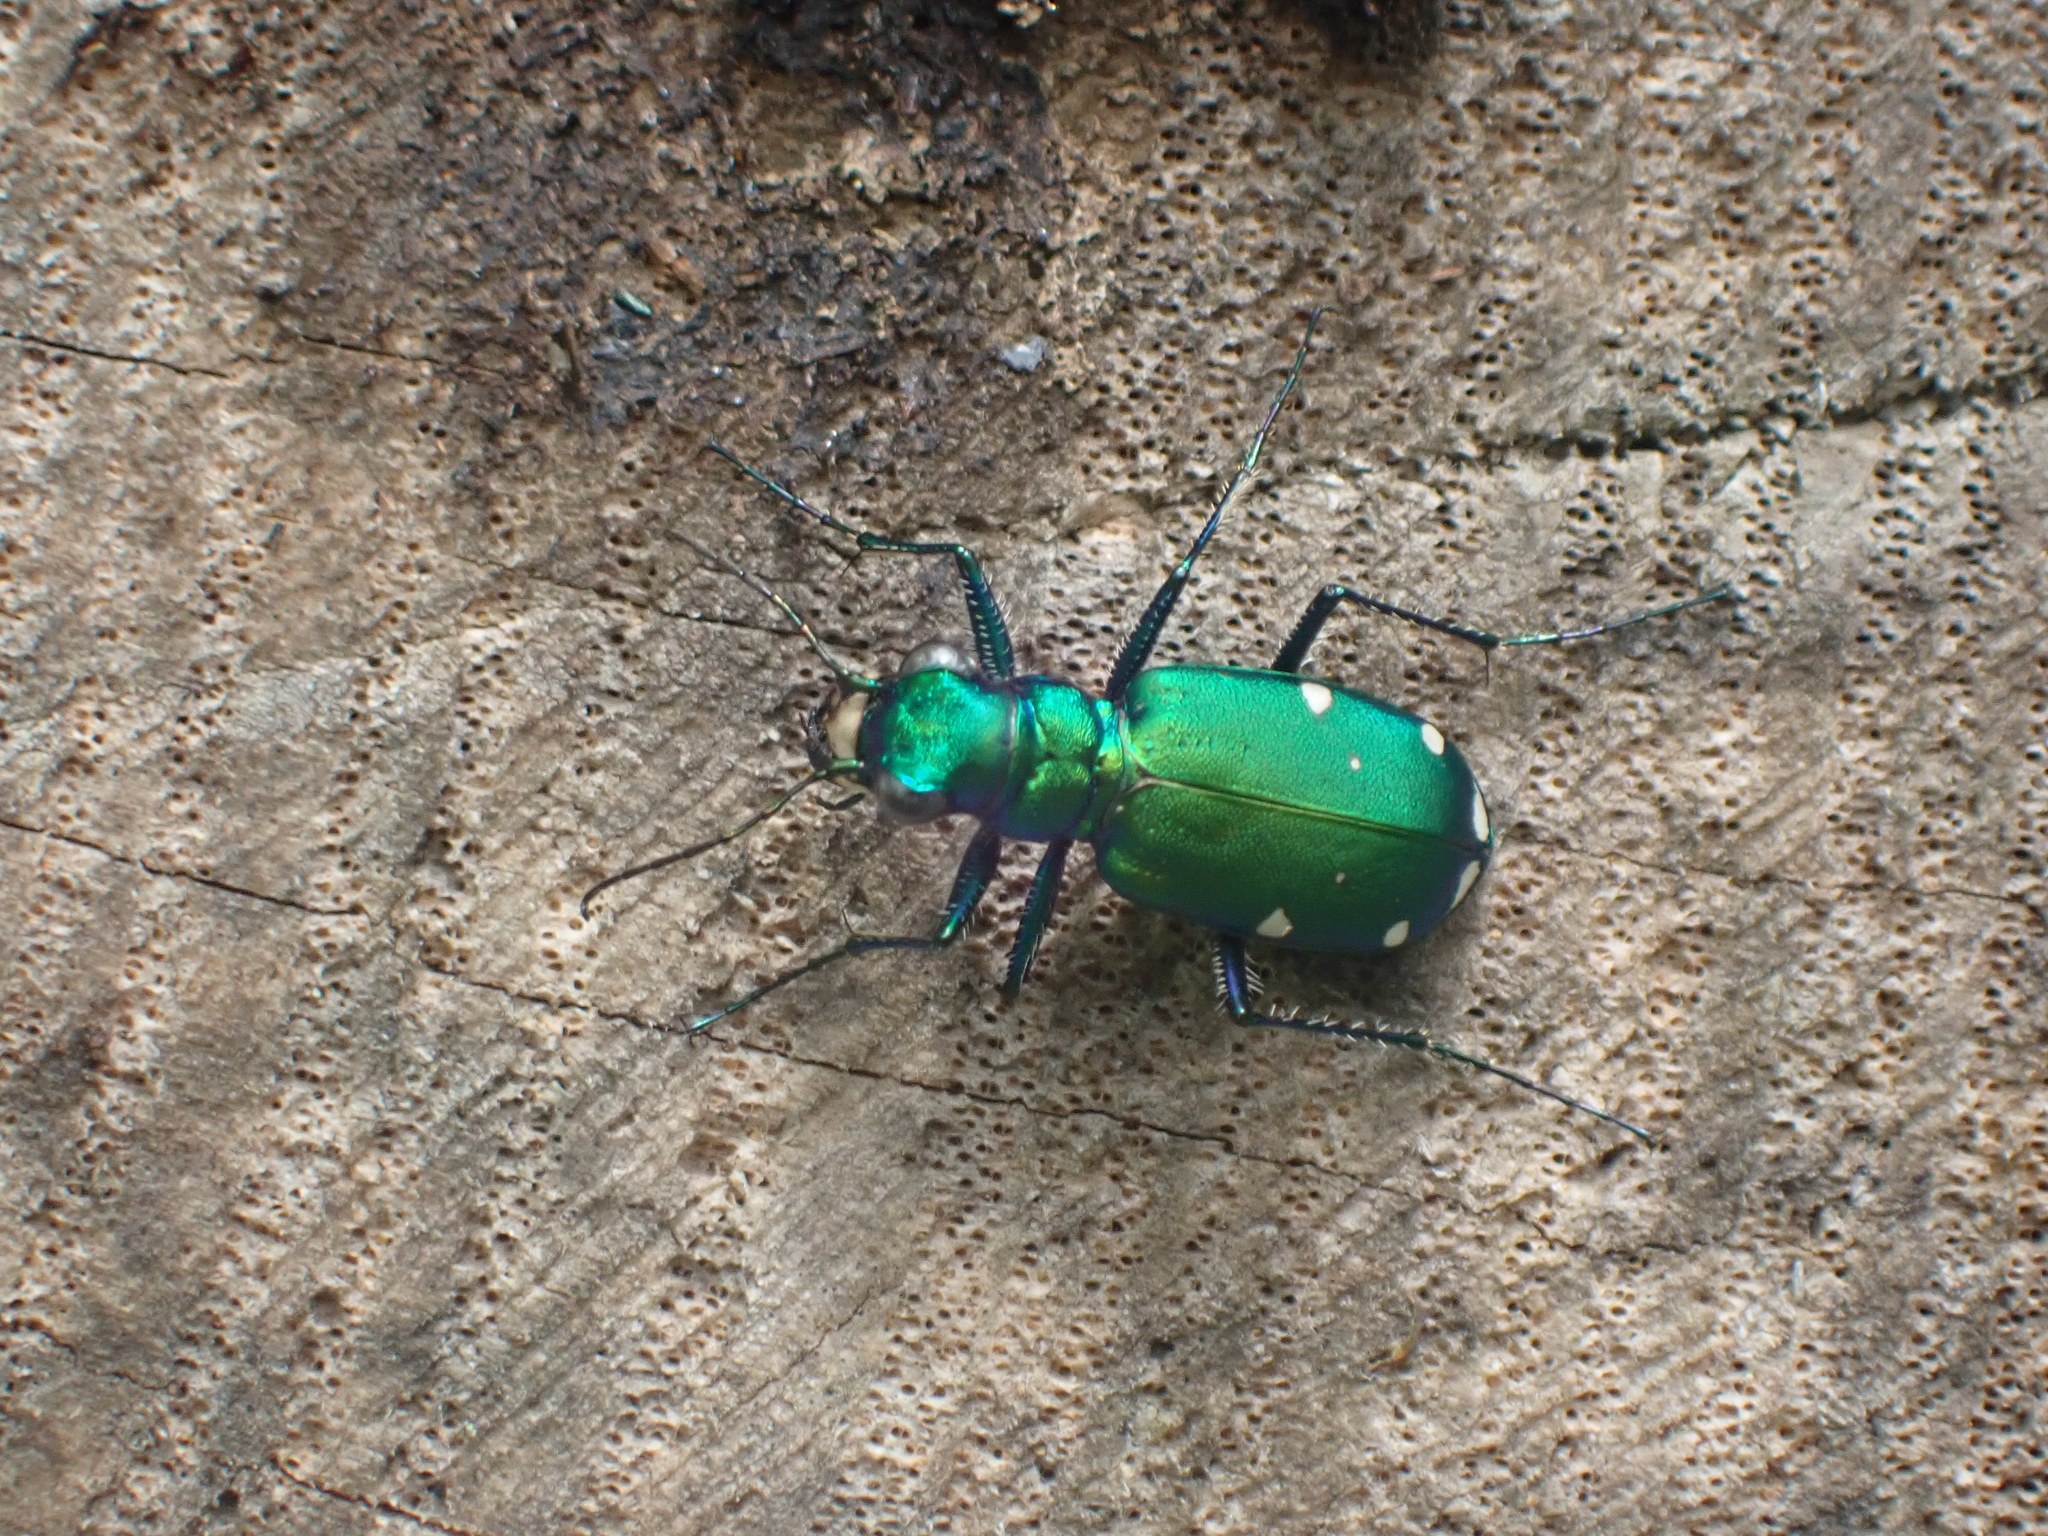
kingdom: Animalia
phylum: Arthropoda
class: Insecta
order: Coleoptera
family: Carabidae
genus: Cicindela
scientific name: Cicindela sexguttata
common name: Six-spotted tiger beetle
